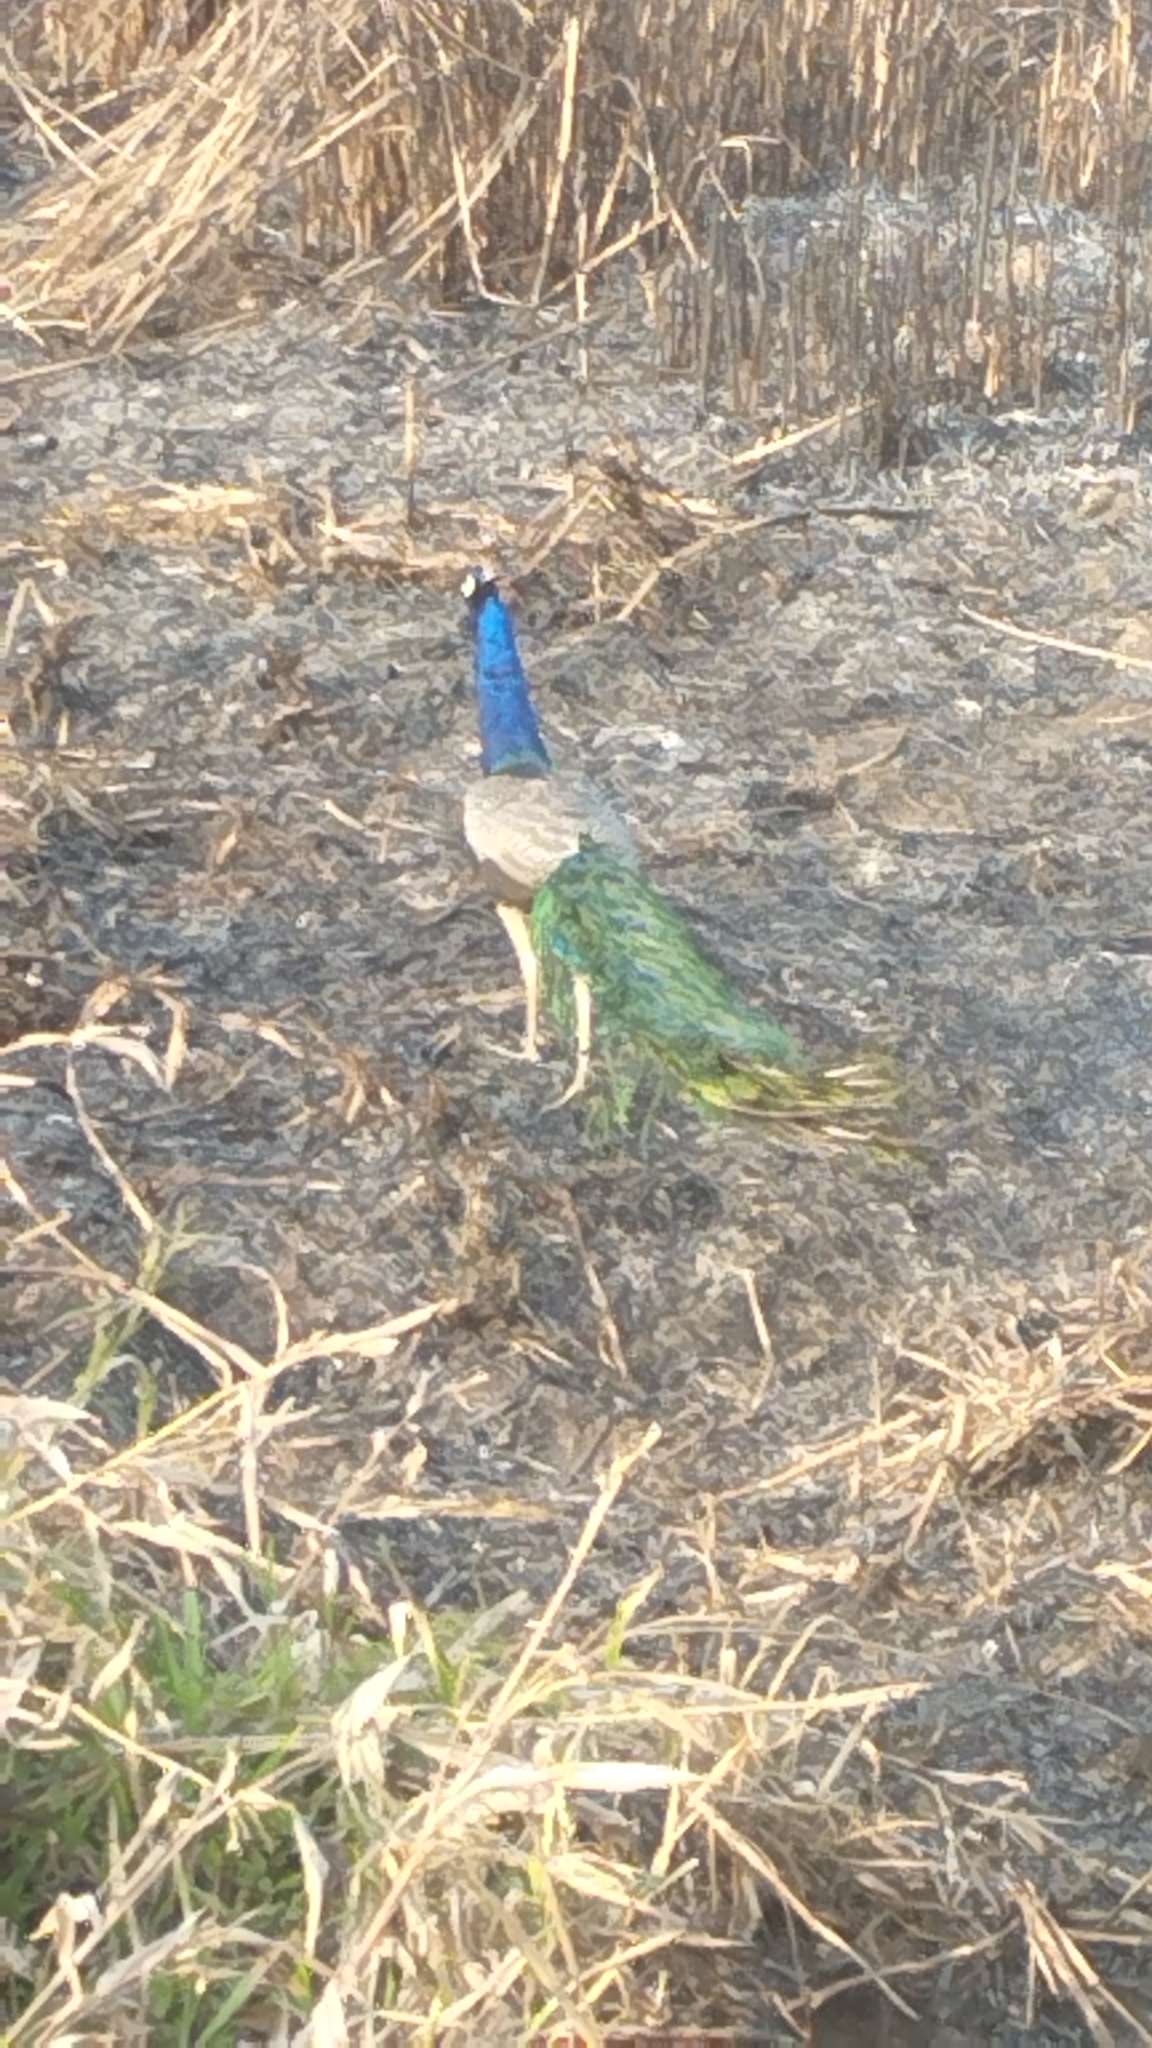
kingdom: Animalia
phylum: Chordata
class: Aves
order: Galliformes
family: Phasianidae
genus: Pavo
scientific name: Pavo cristatus
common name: Indian peafowl
